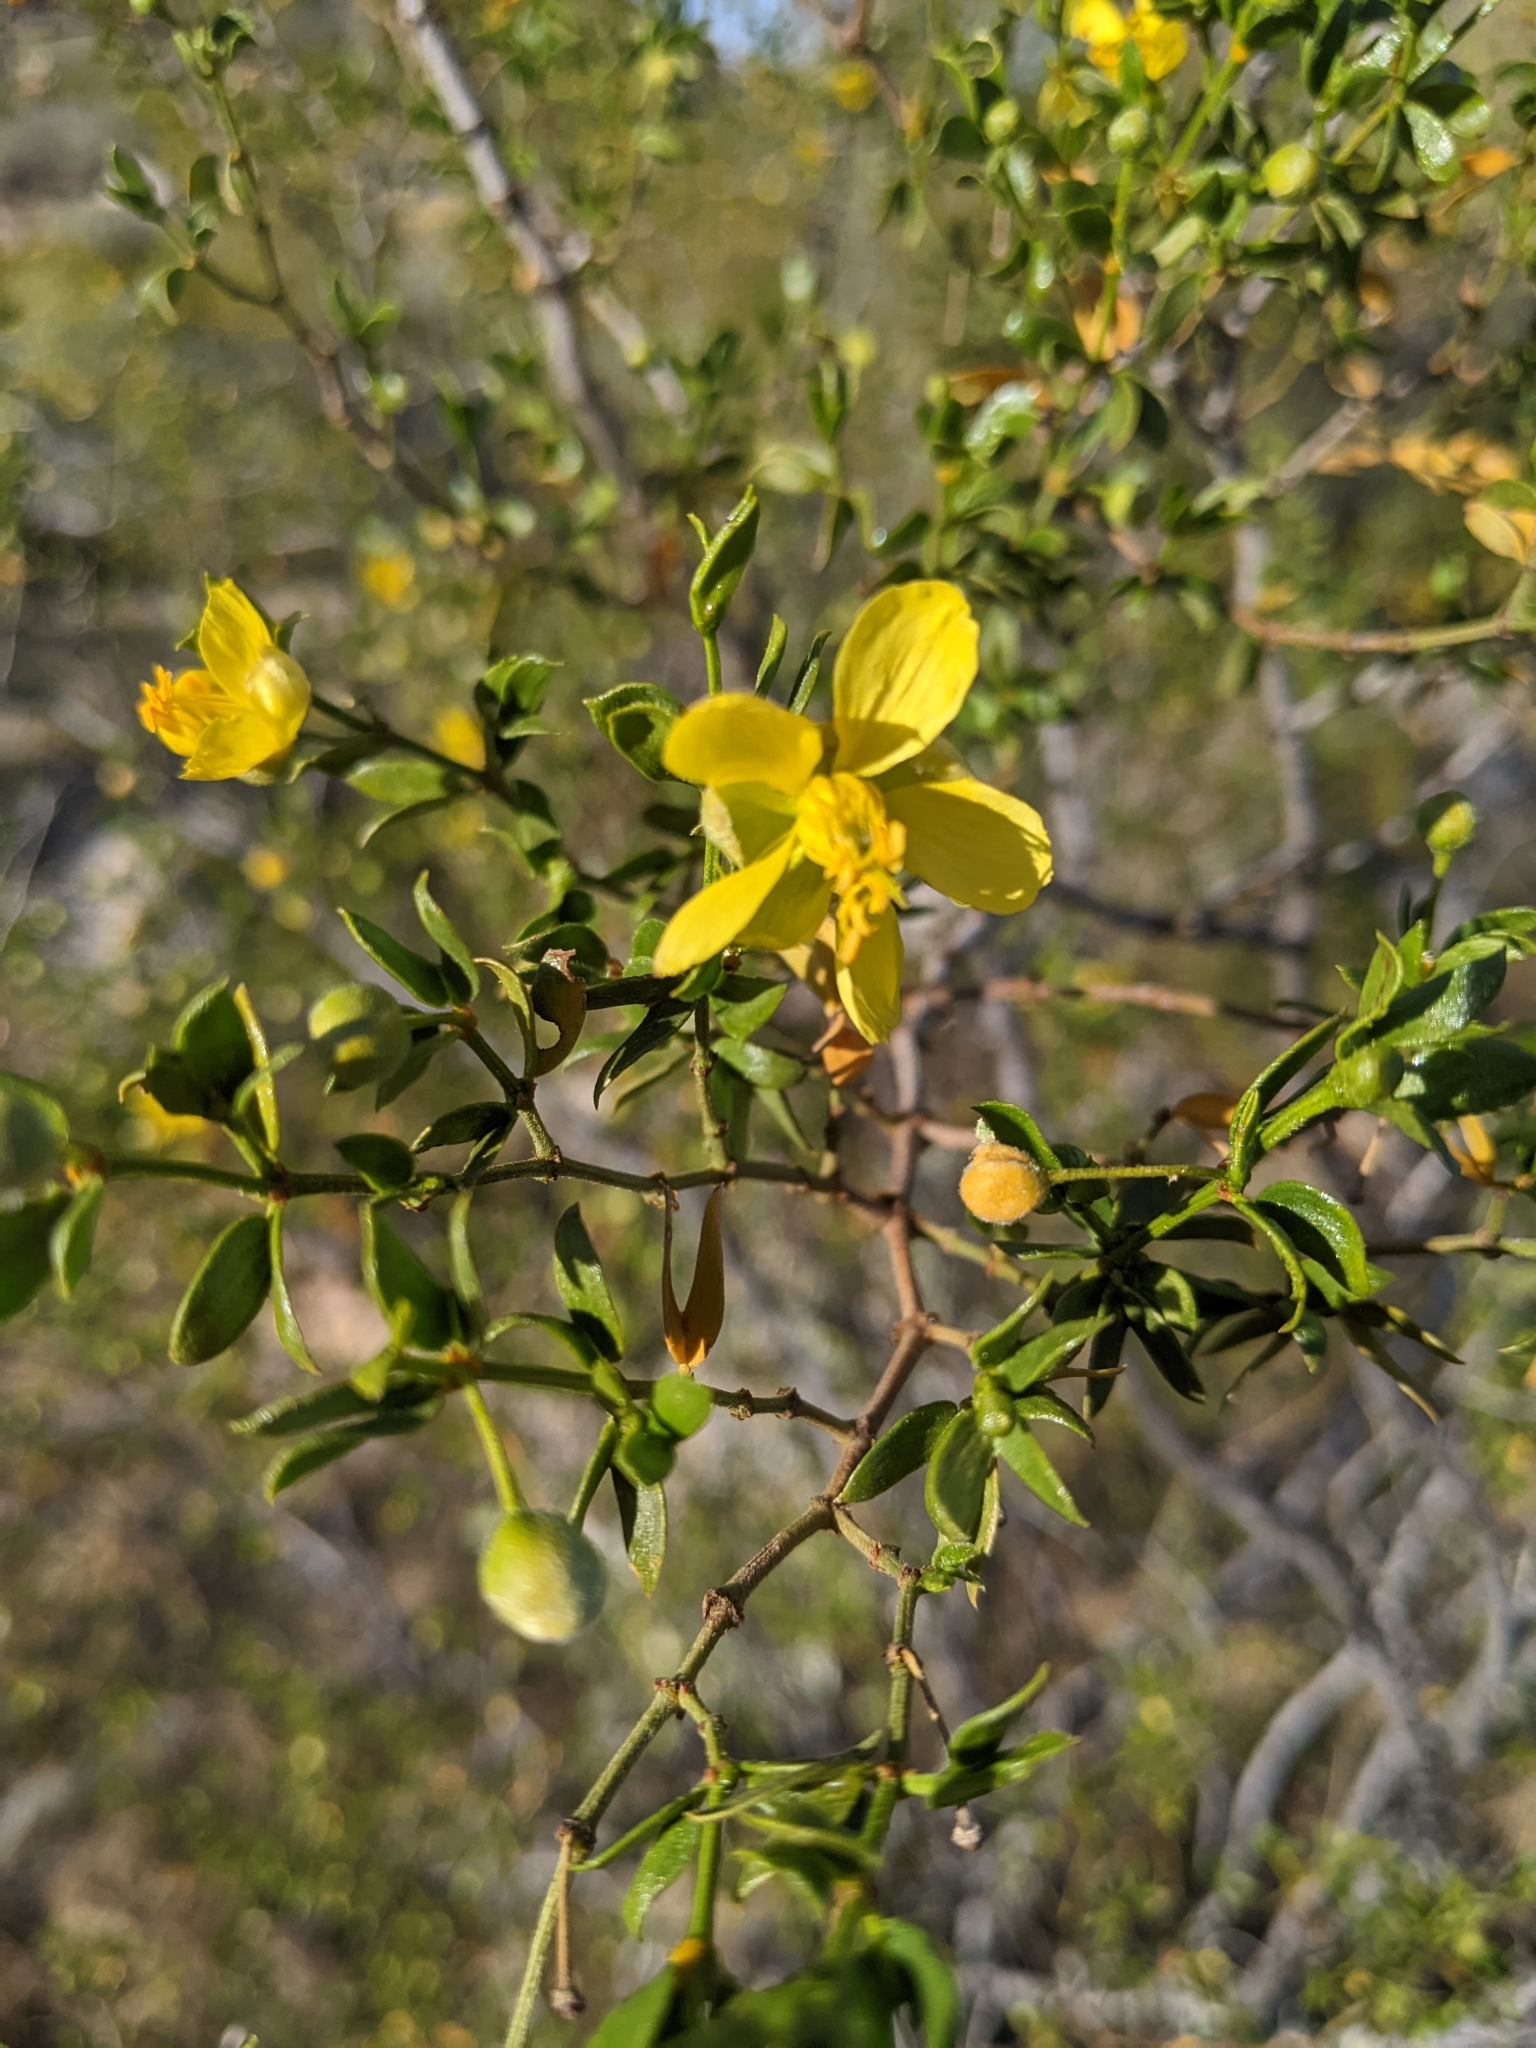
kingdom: Plantae
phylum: Tracheophyta
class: Magnoliopsida
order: Zygophyllales
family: Zygophyllaceae
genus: Larrea
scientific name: Larrea tridentata
